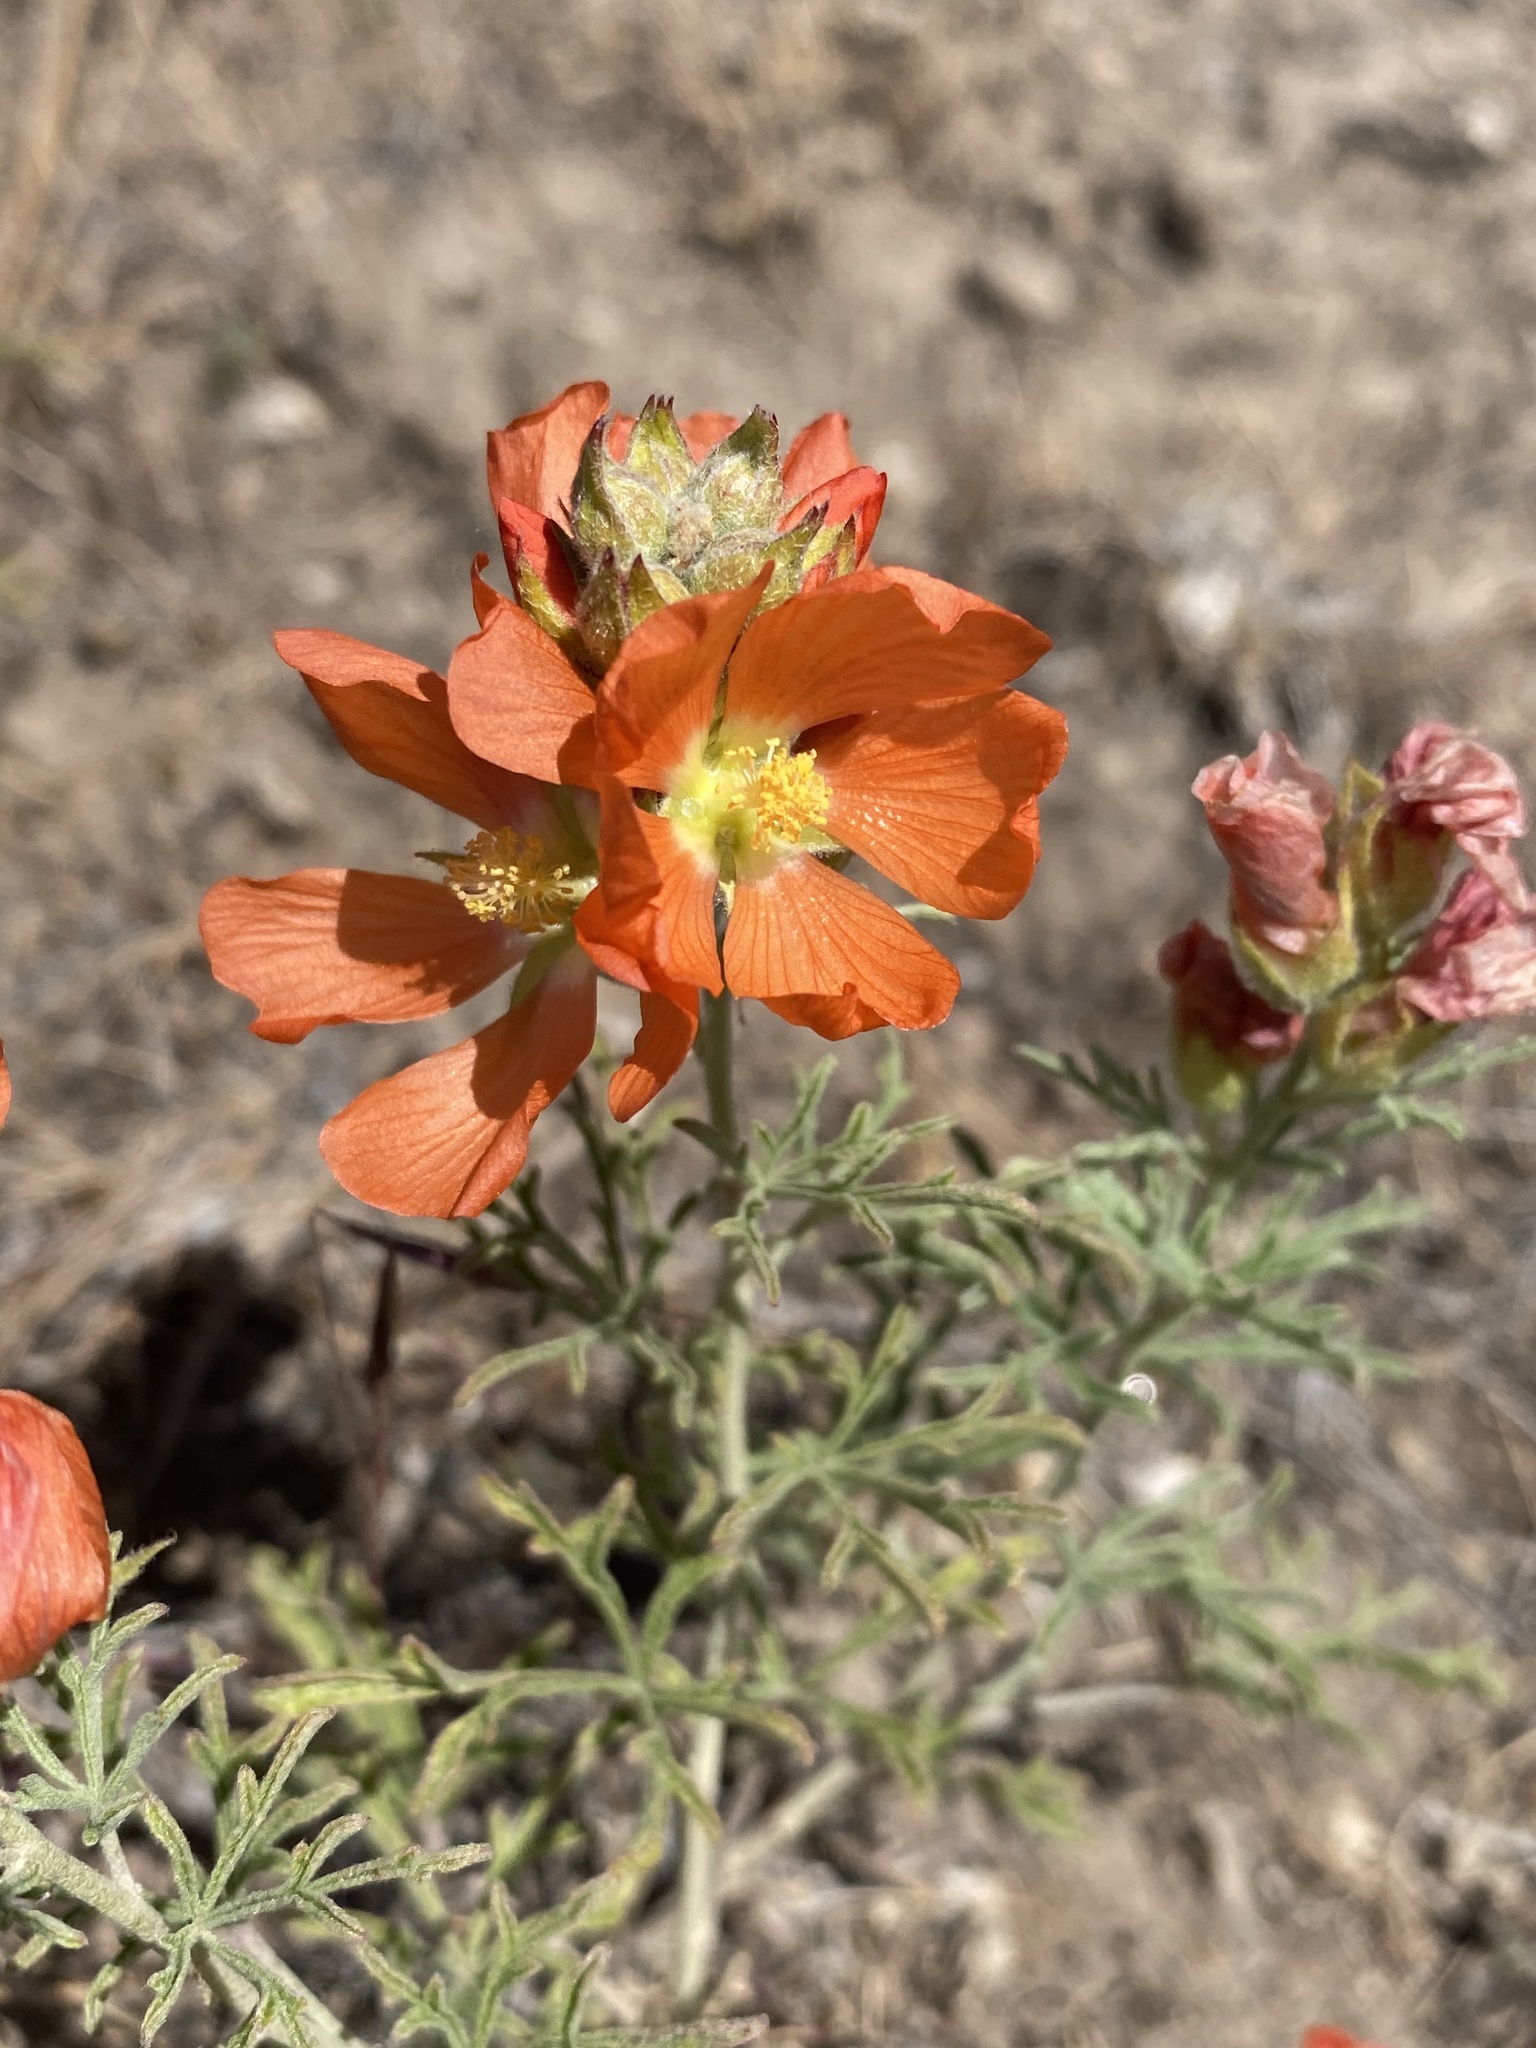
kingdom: Plantae
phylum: Tracheophyta
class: Magnoliopsida
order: Malvales
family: Malvaceae
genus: Sphaeralcea
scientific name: Sphaeralcea coccinea
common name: Moss-rose
